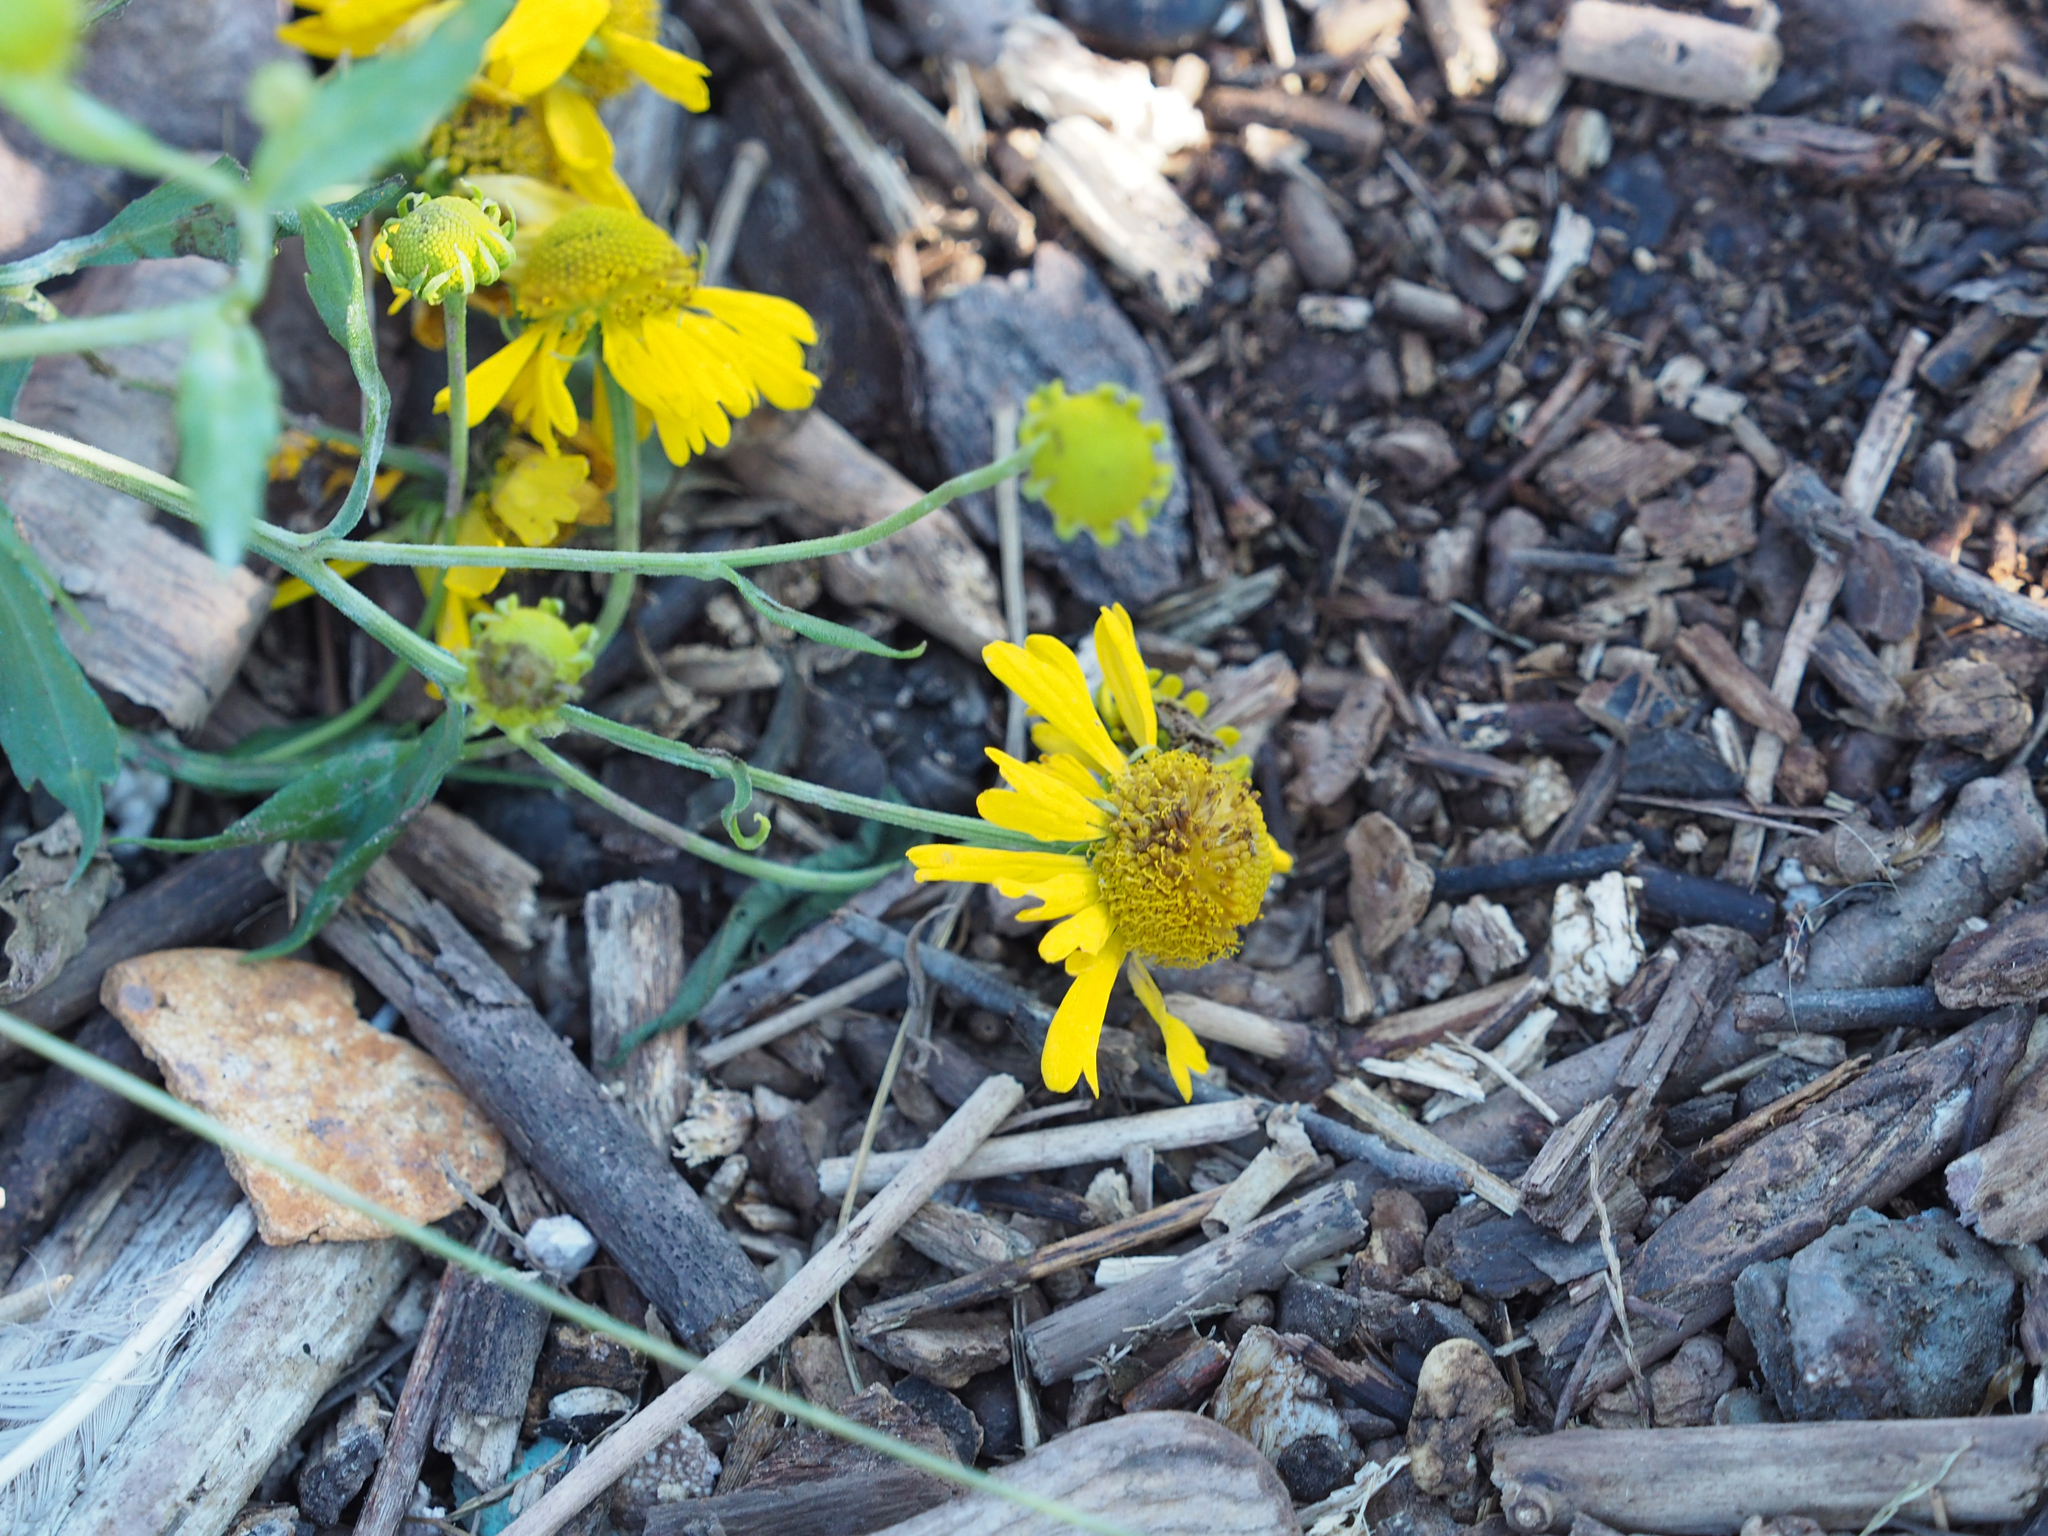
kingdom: Plantae
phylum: Tracheophyta
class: Magnoliopsida
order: Asterales
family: Asteraceae
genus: Helenium
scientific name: Helenium autumnale
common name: Sneezeweed
